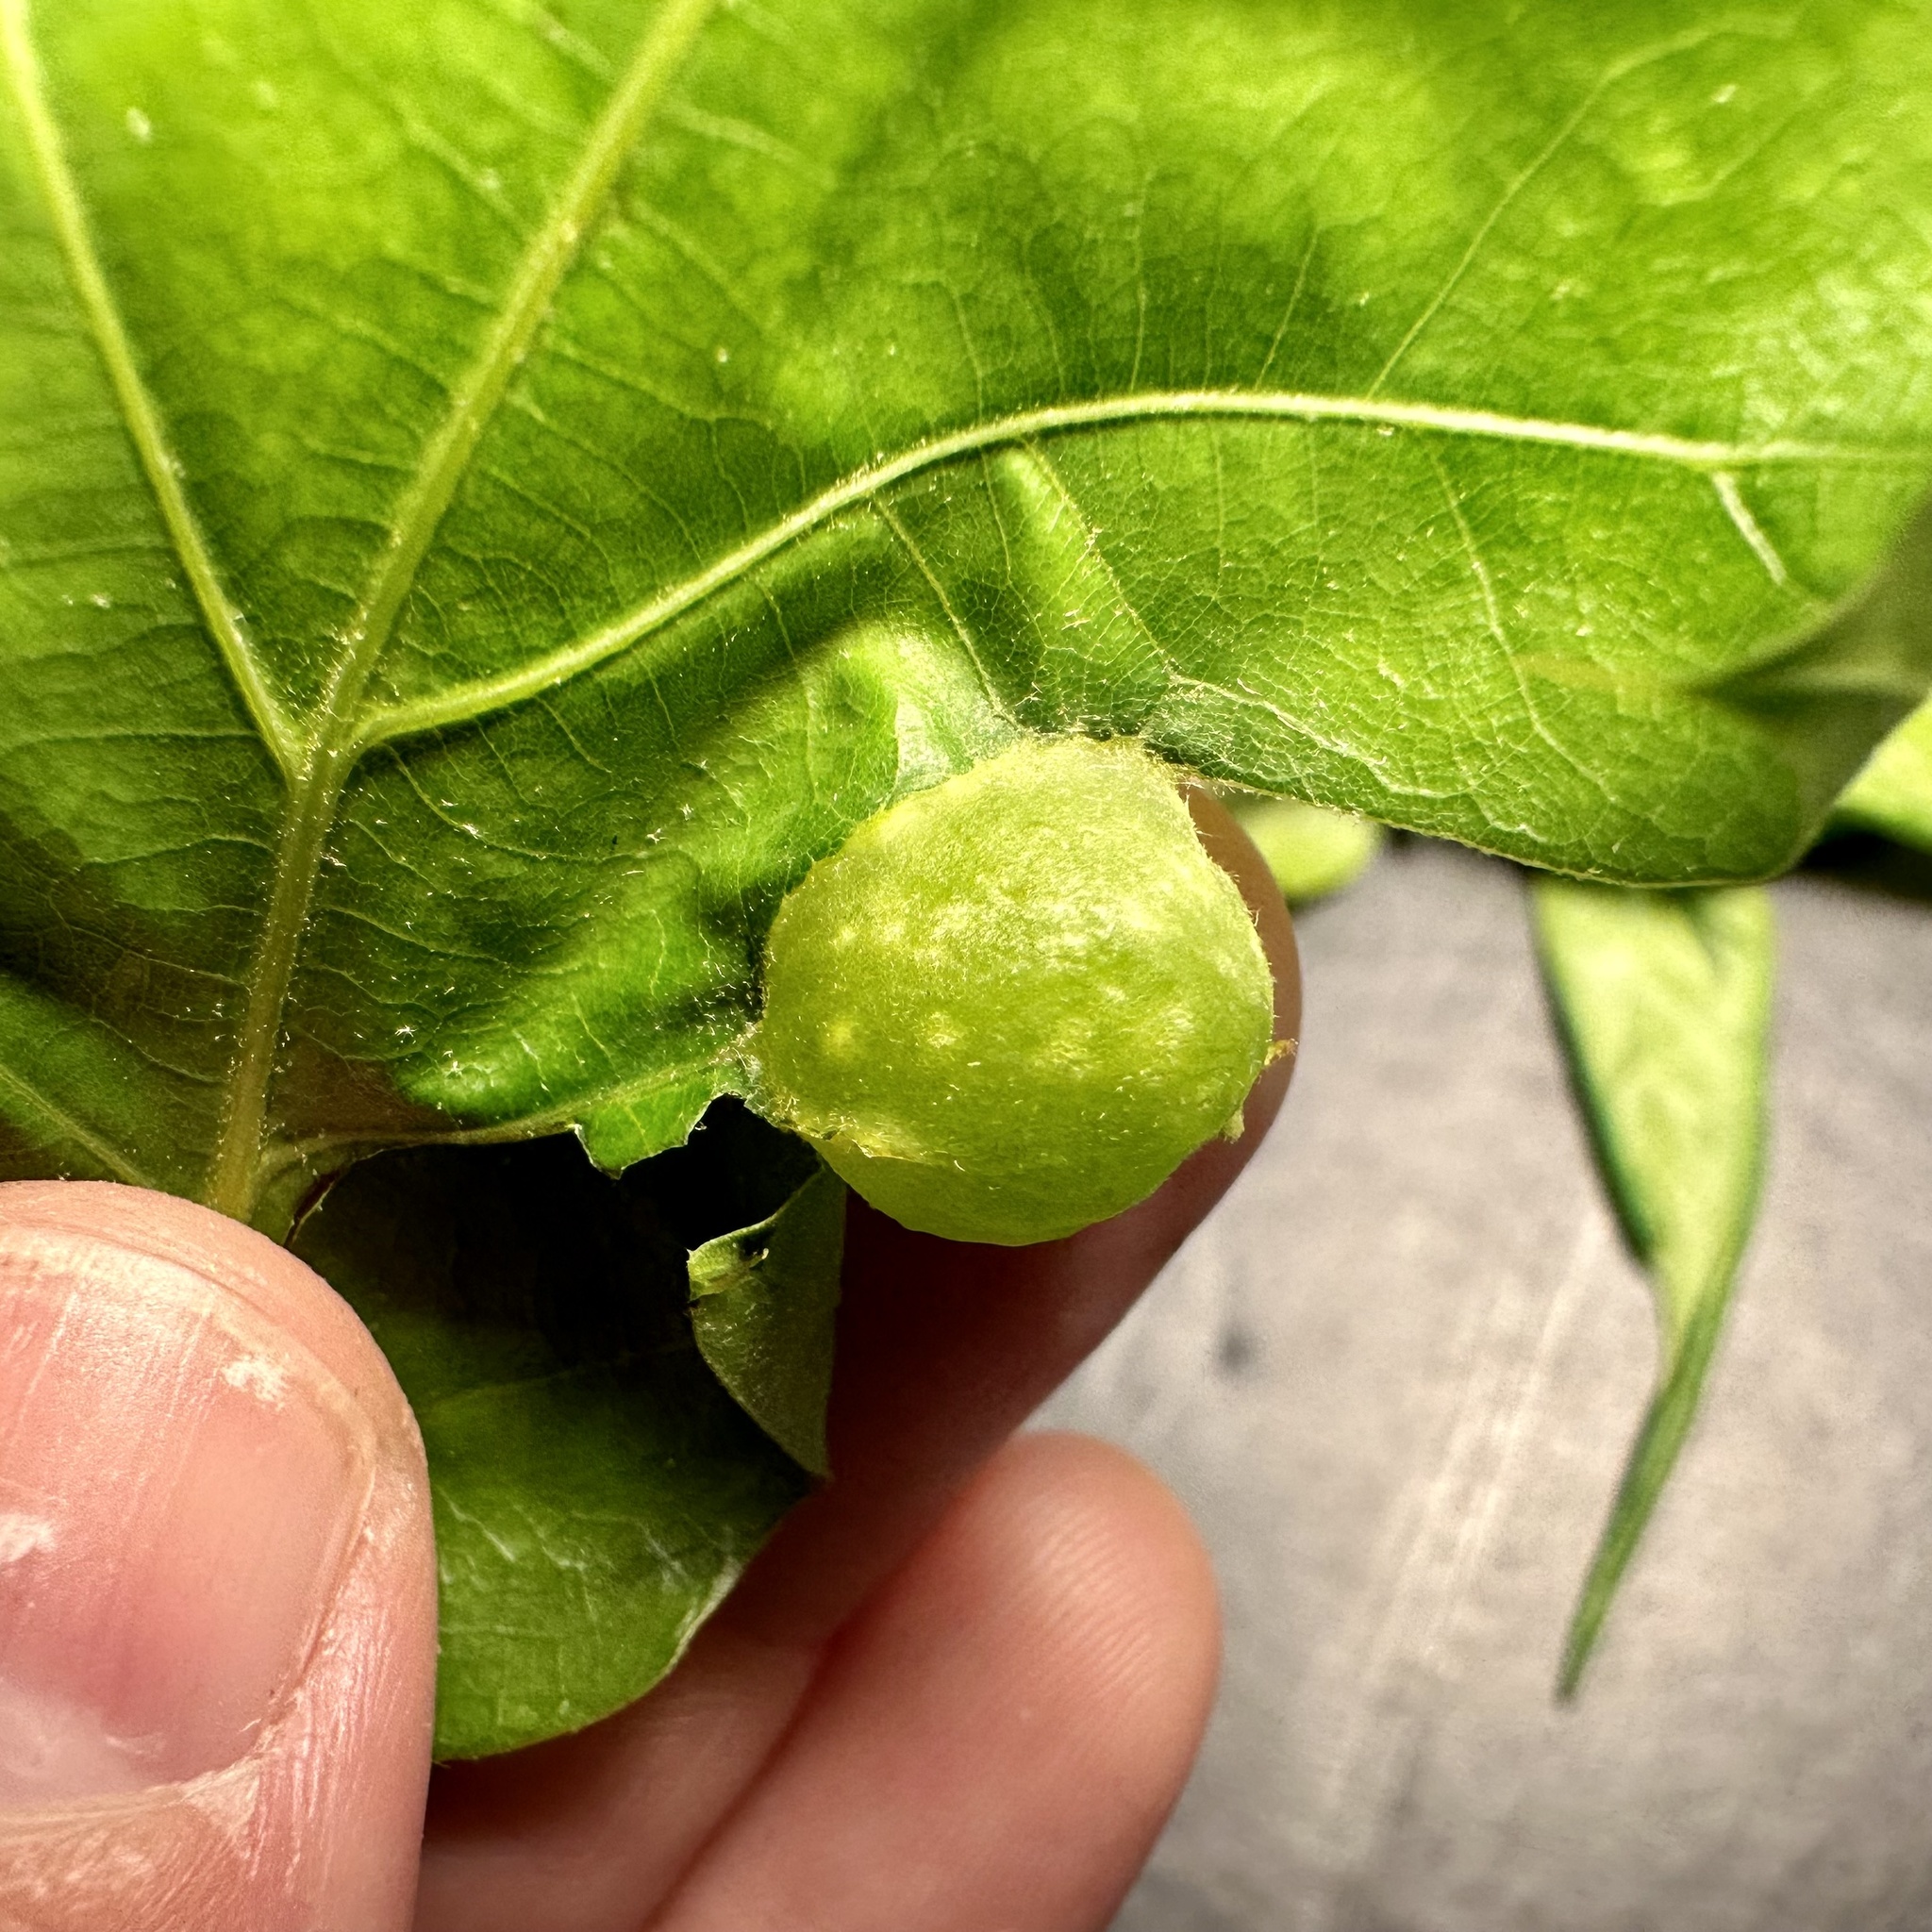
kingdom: Animalia
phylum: Arthropoda
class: Insecta
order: Hymenoptera
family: Cynipidae
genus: Dryocosmus
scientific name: Dryocosmus quercuspalustris
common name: Succulent oak gall wasp
